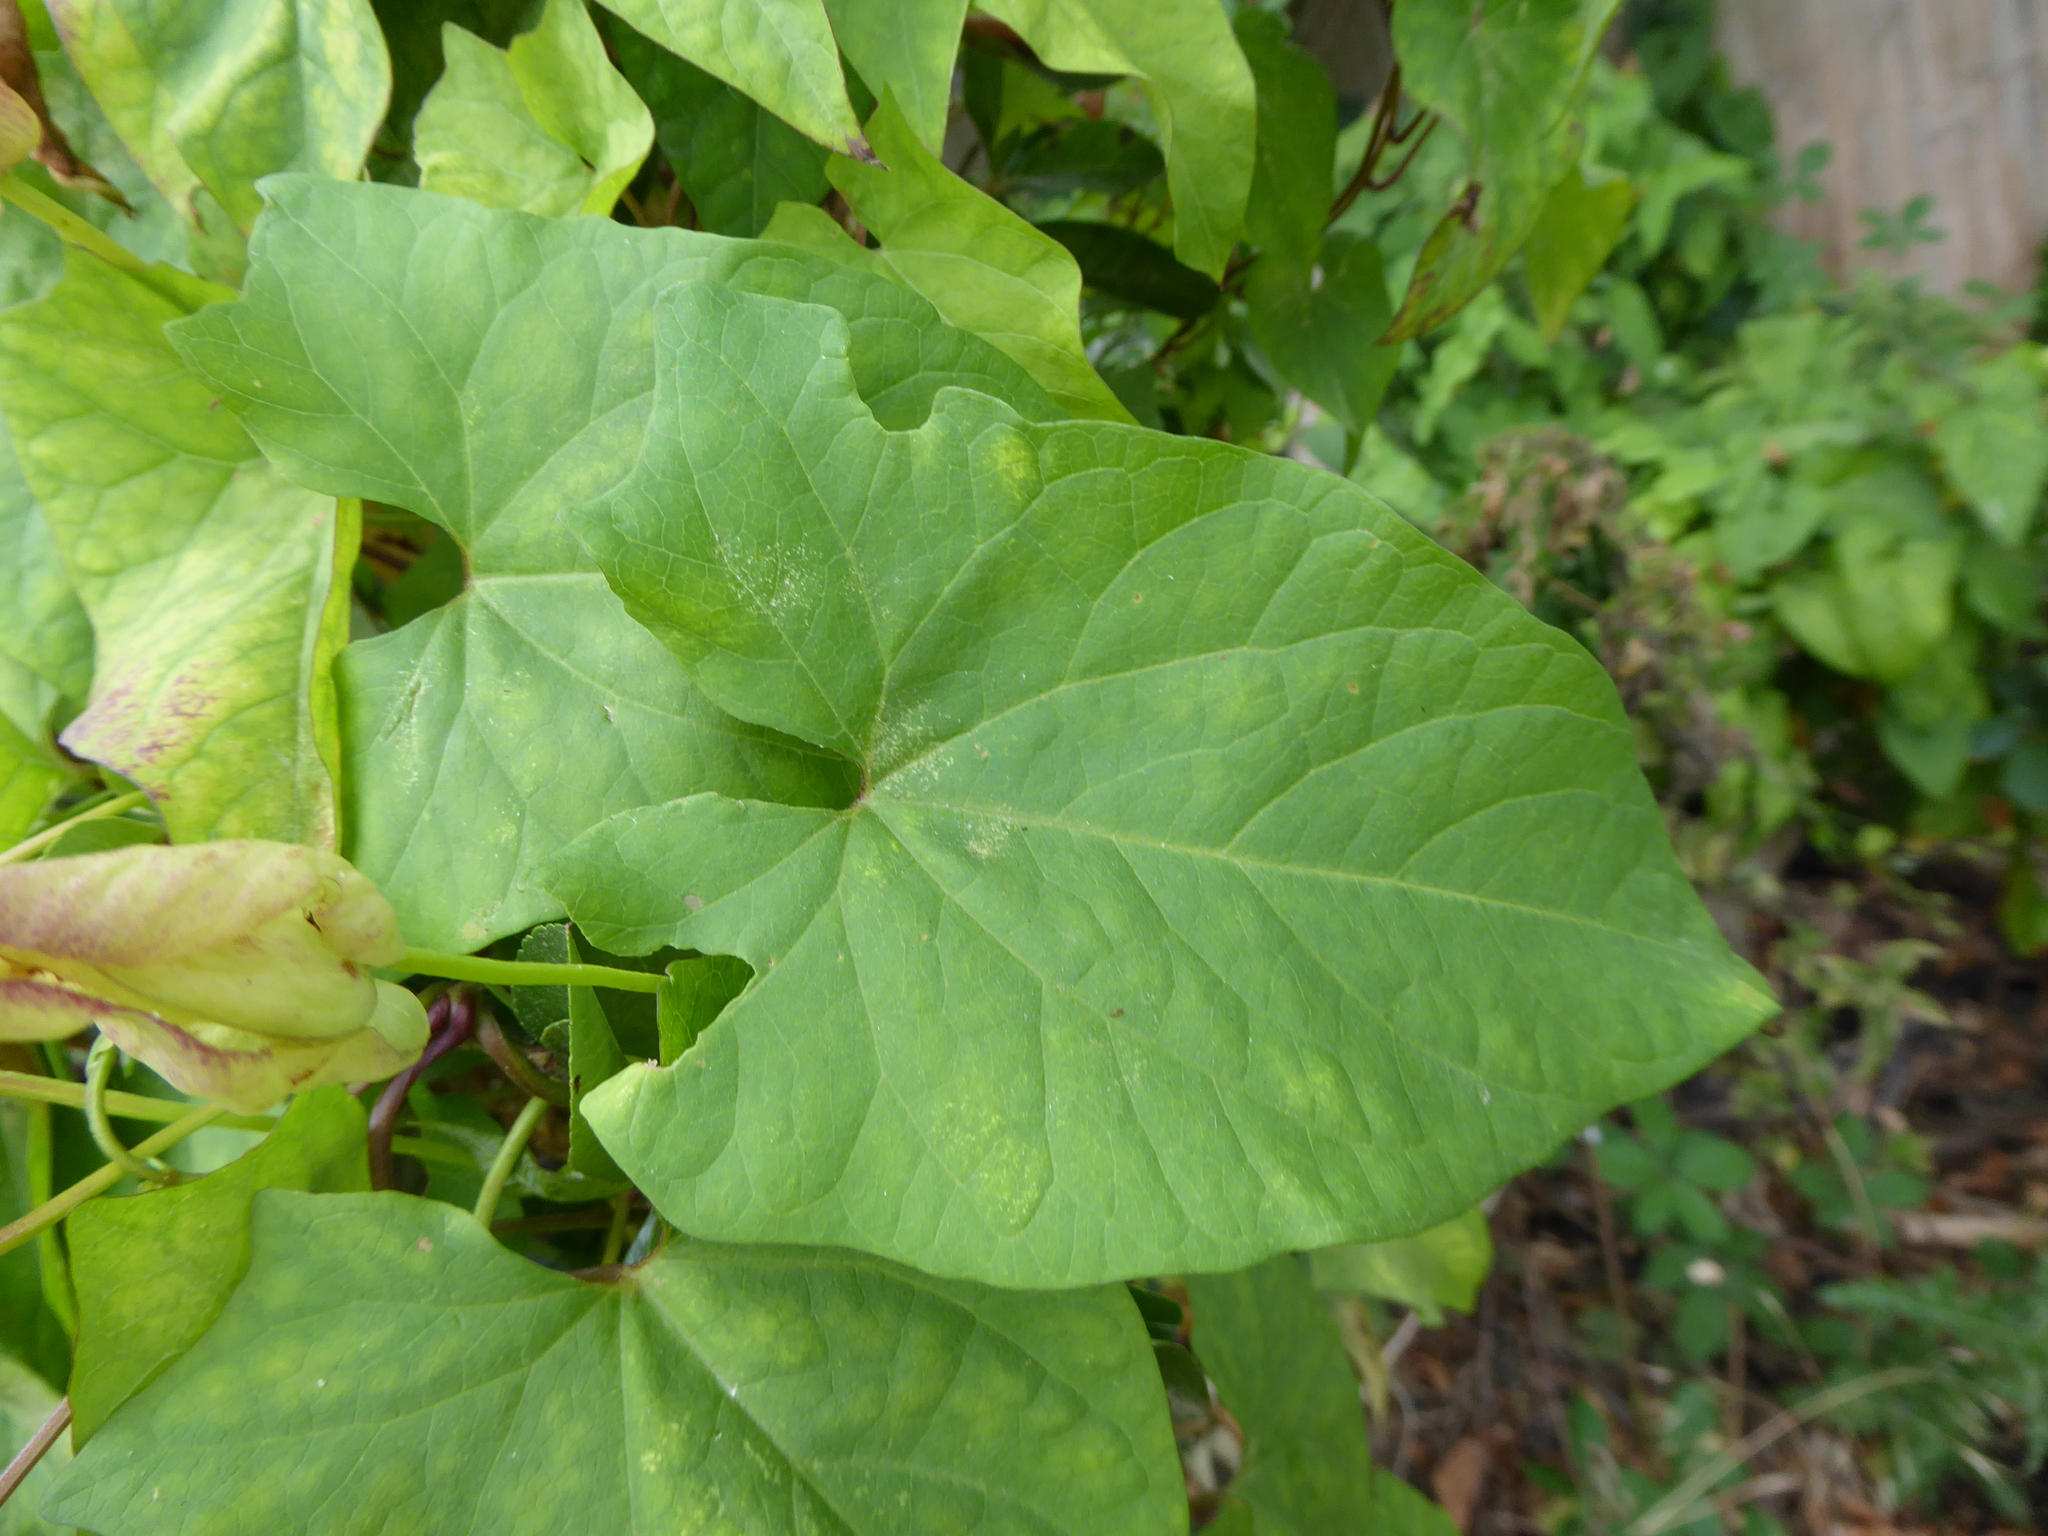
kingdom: Plantae
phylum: Tracheophyta
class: Magnoliopsida
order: Solanales
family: Convolvulaceae
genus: Calystegia
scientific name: Calystegia silvatica
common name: Large bindweed
